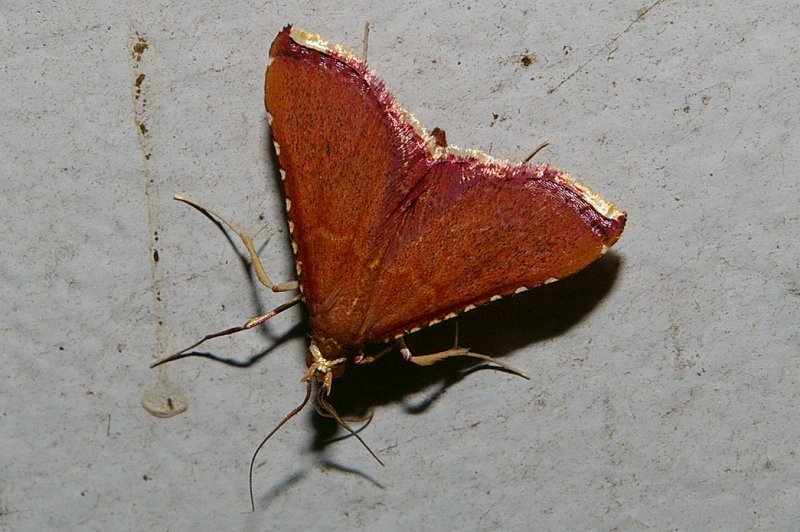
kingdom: Animalia
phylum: Arthropoda
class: Insecta
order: Lepidoptera
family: Pyralidae
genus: Endotricha
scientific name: Endotricha minialis
